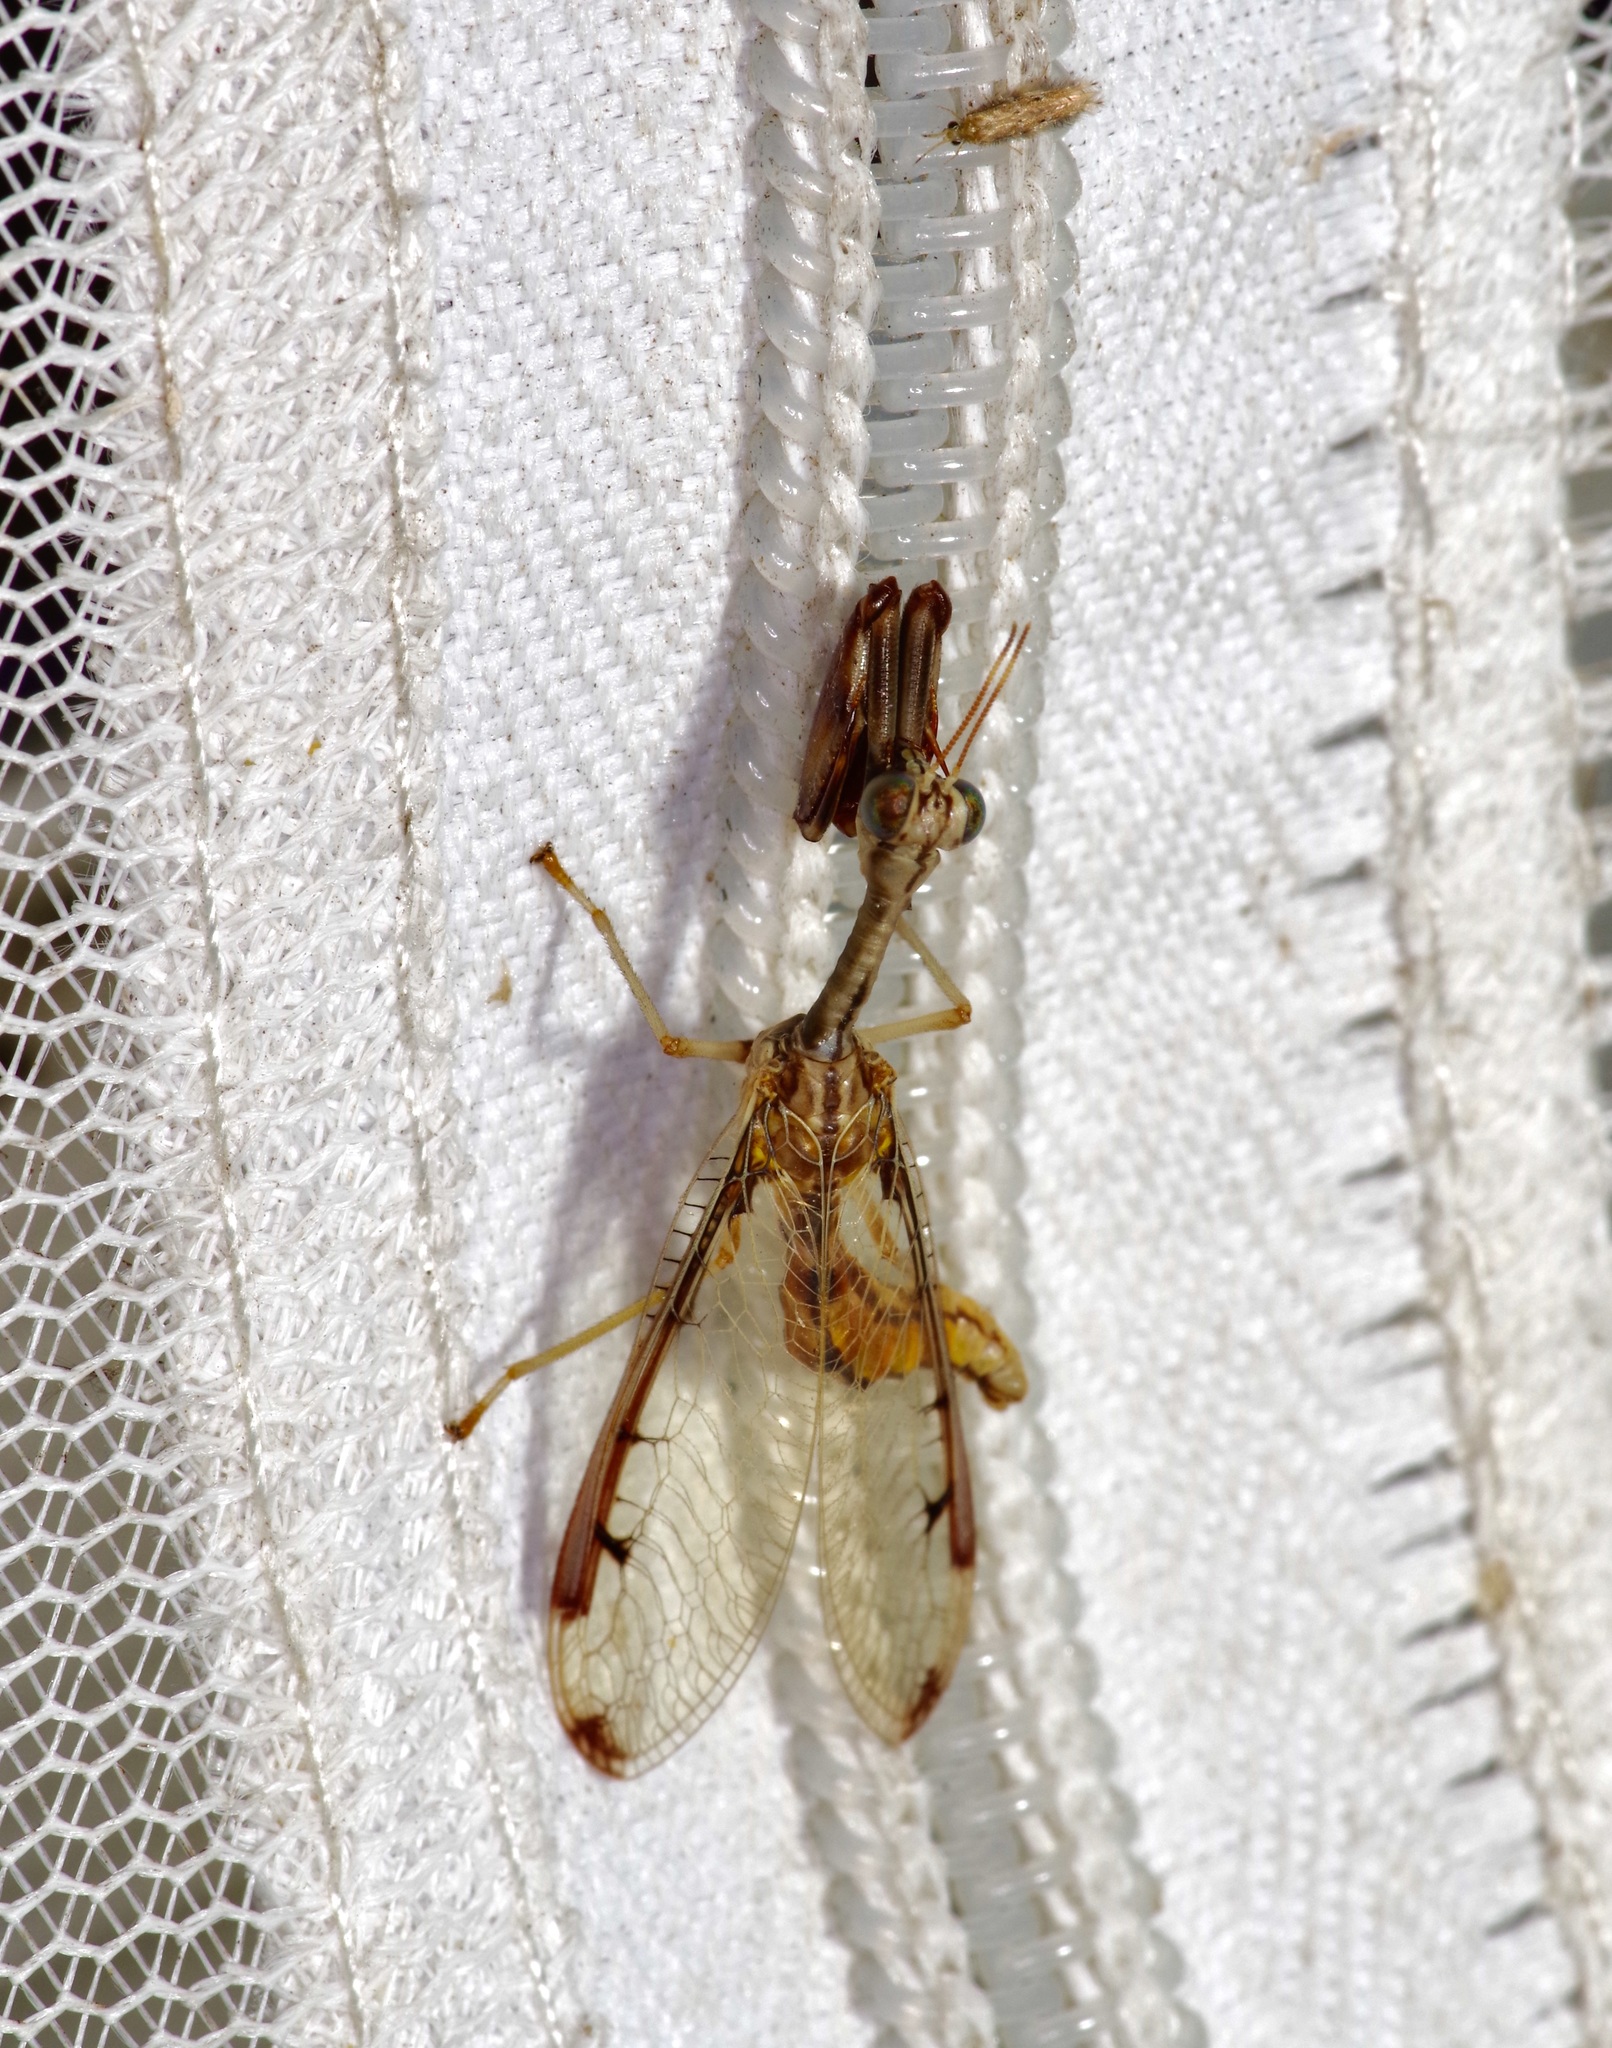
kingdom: Animalia
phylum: Arthropoda
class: Insecta
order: Neuroptera
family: Mantispidae
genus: Dicromantispa
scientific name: Dicromantispa interrupta
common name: Four-spotted mantidfly
